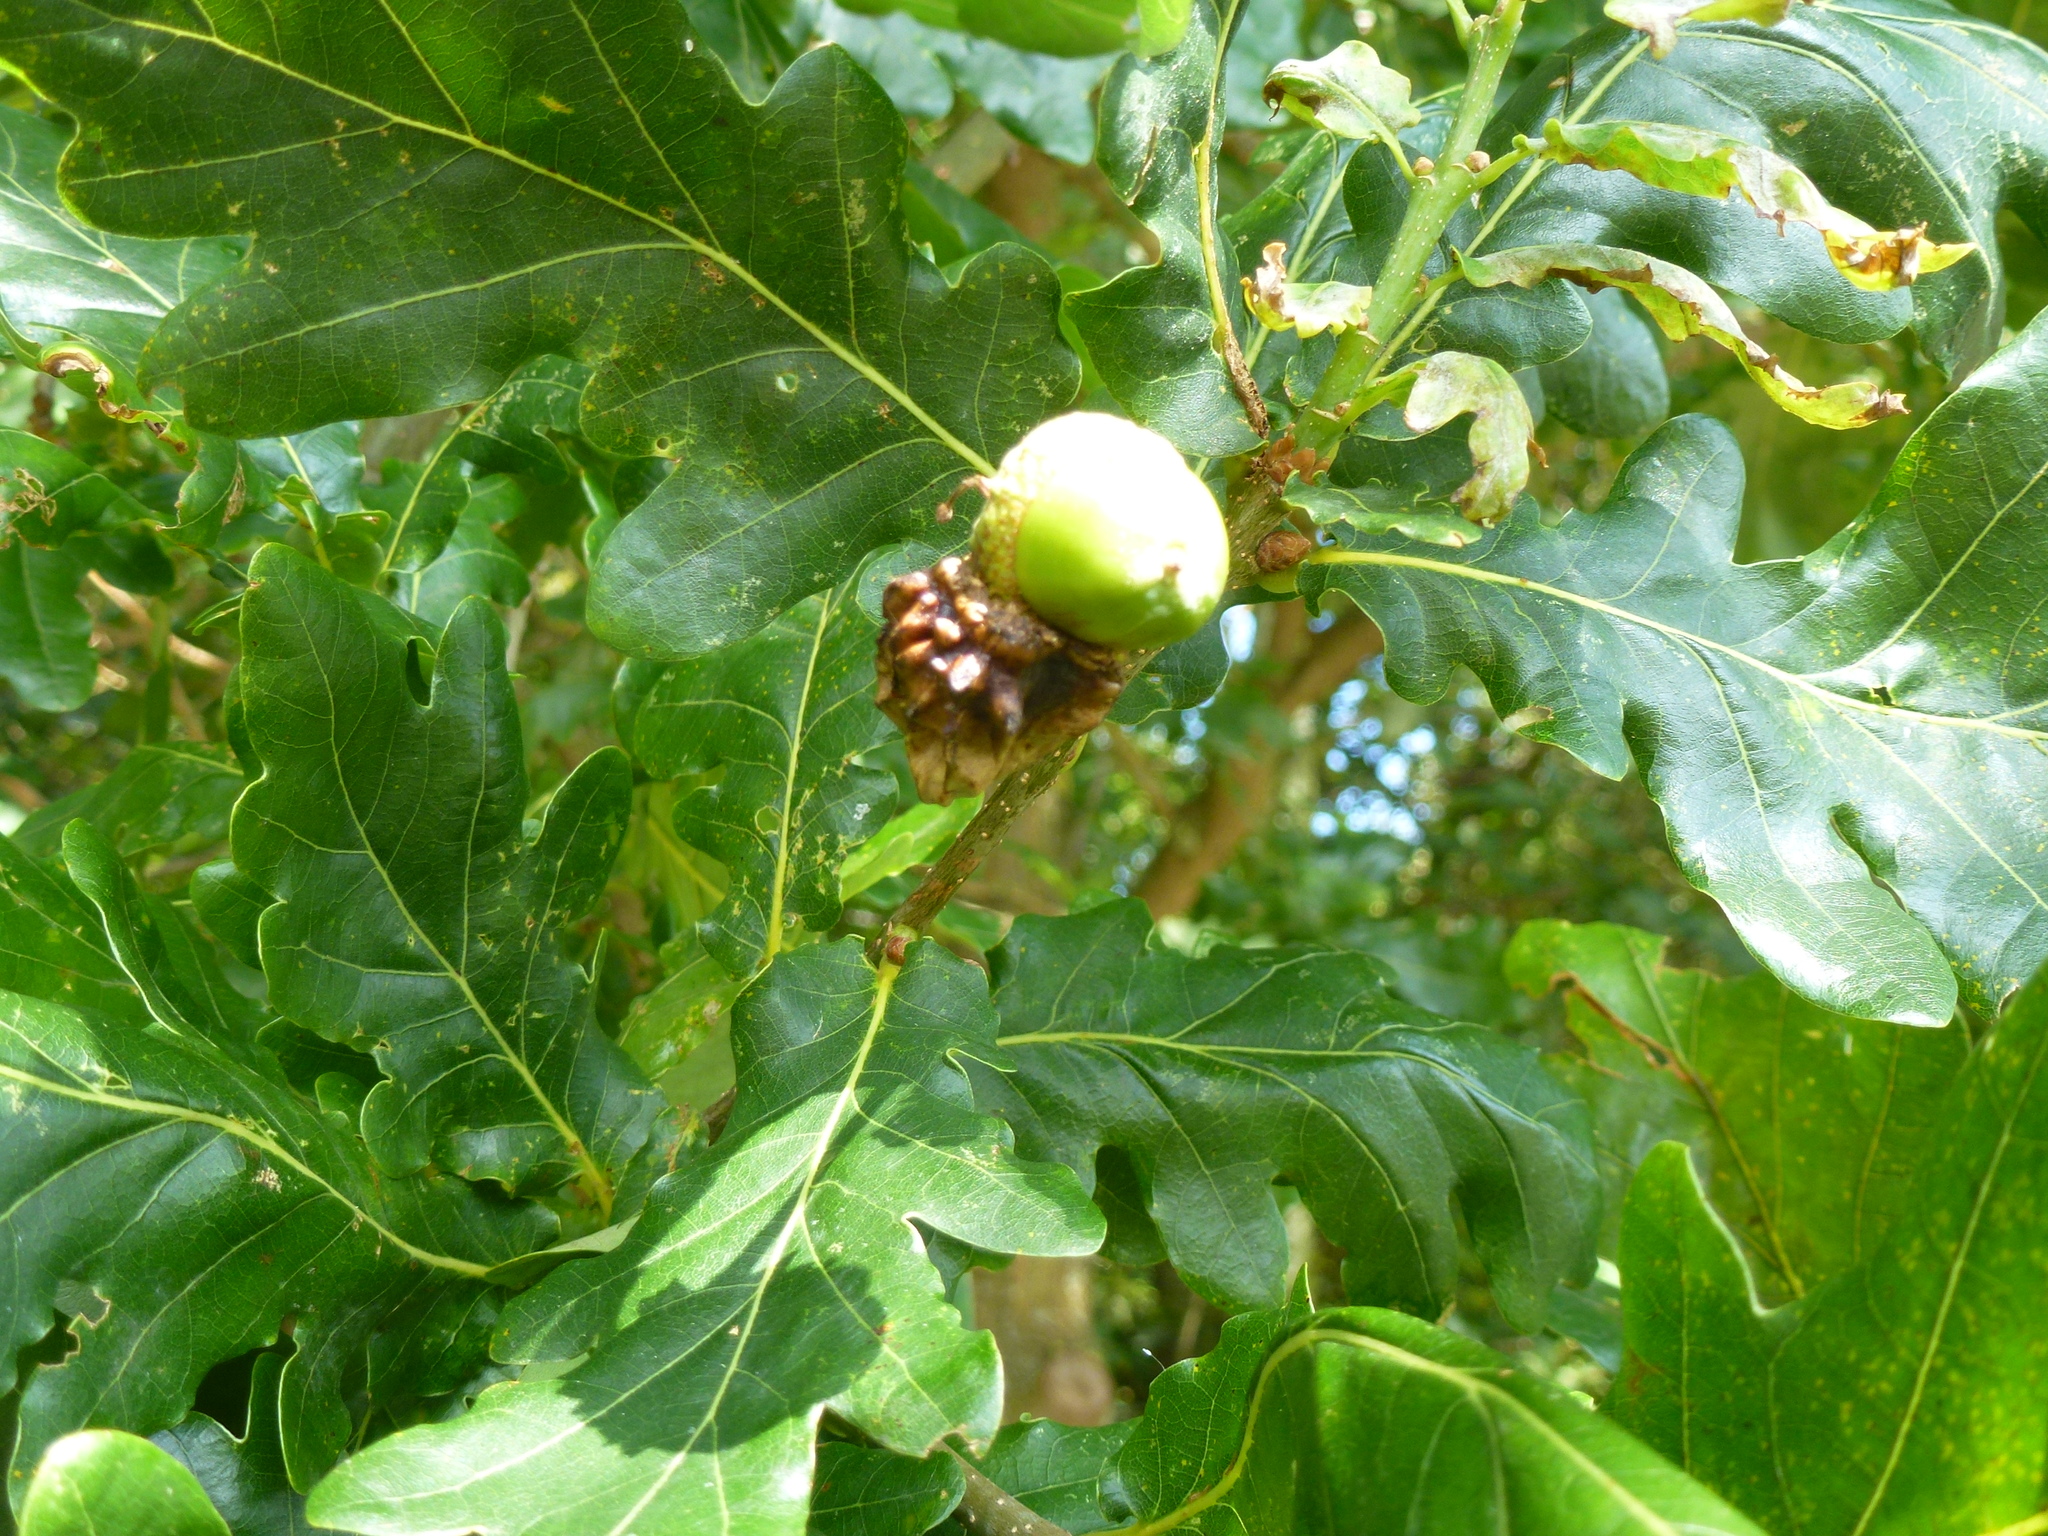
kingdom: Animalia
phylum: Arthropoda
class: Insecta
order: Hymenoptera
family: Cynipidae
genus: Andricus
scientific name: Andricus quercuscalicis
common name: Knopper gall
